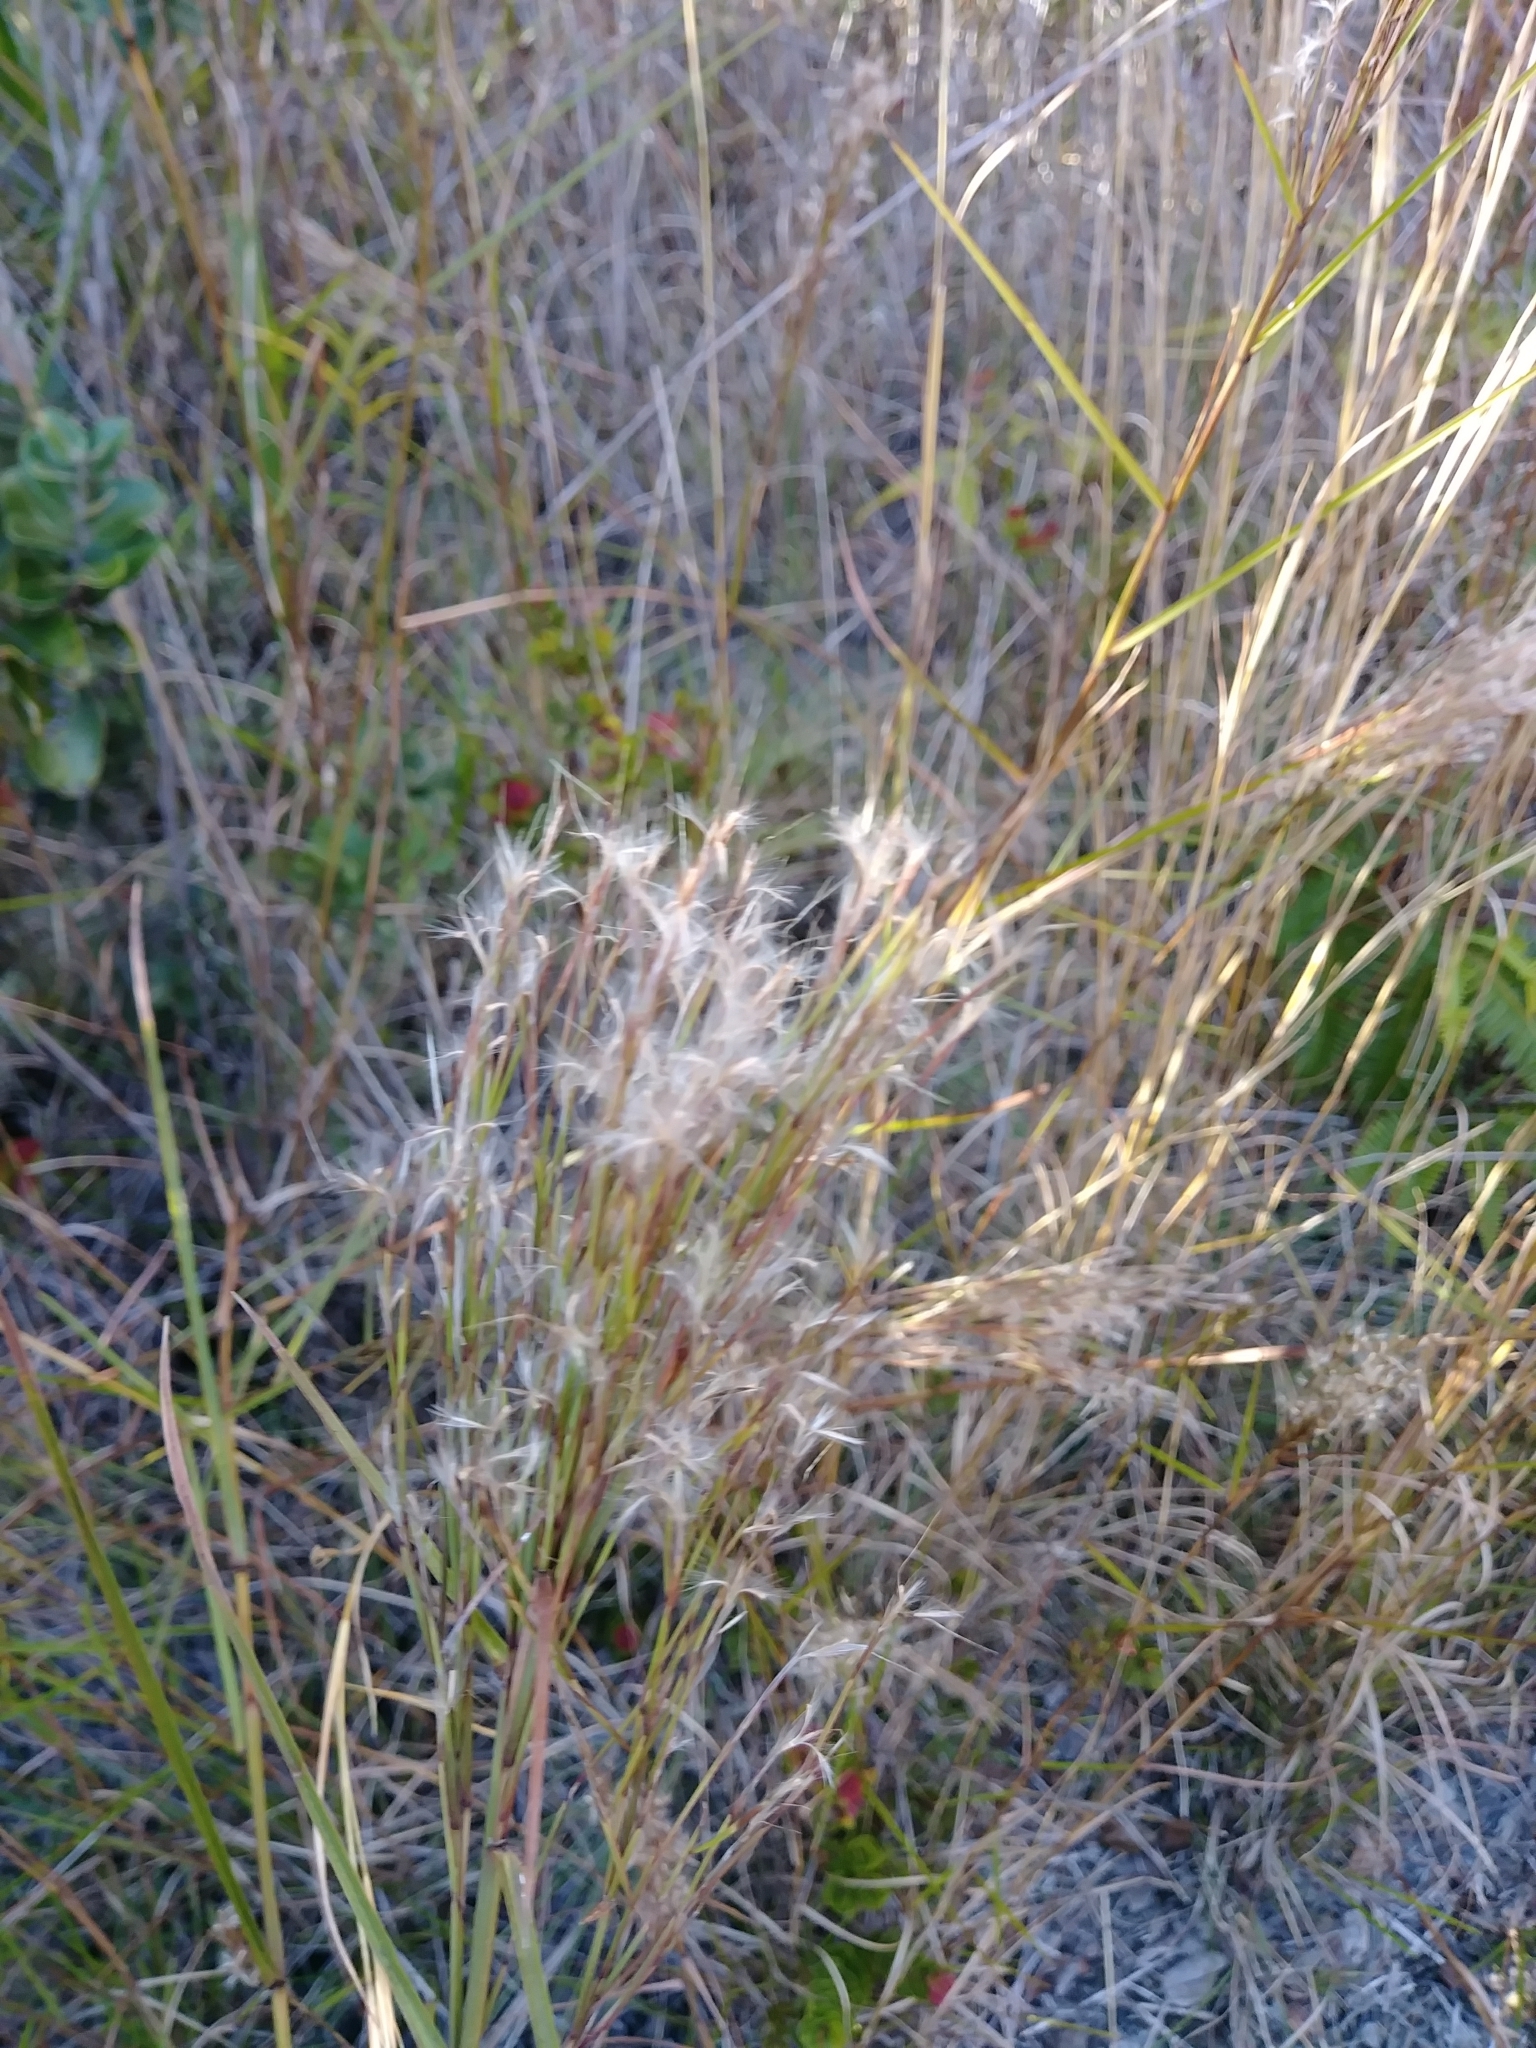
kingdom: Plantae
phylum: Tracheophyta
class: Liliopsida
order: Poales
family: Poaceae
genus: Schizachyrium
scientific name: Schizachyrium microstachyum
